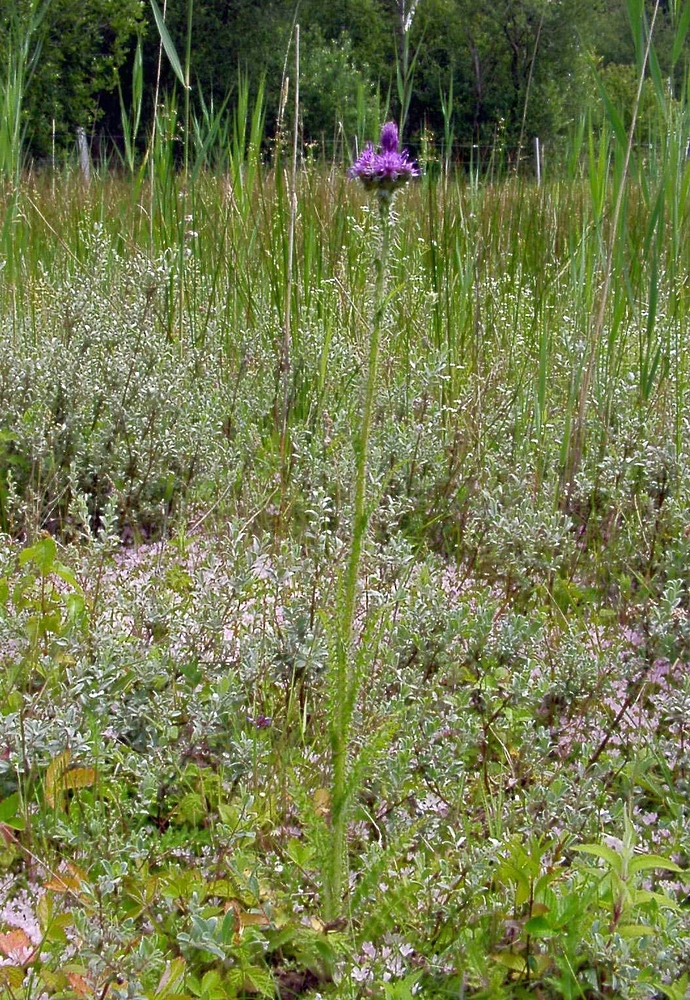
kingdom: Plantae
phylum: Tracheophyta
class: Magnoliopsida
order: Asterales
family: Asteraceae
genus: Cirsium
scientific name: Cirsium palustre
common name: Marsh thistle
